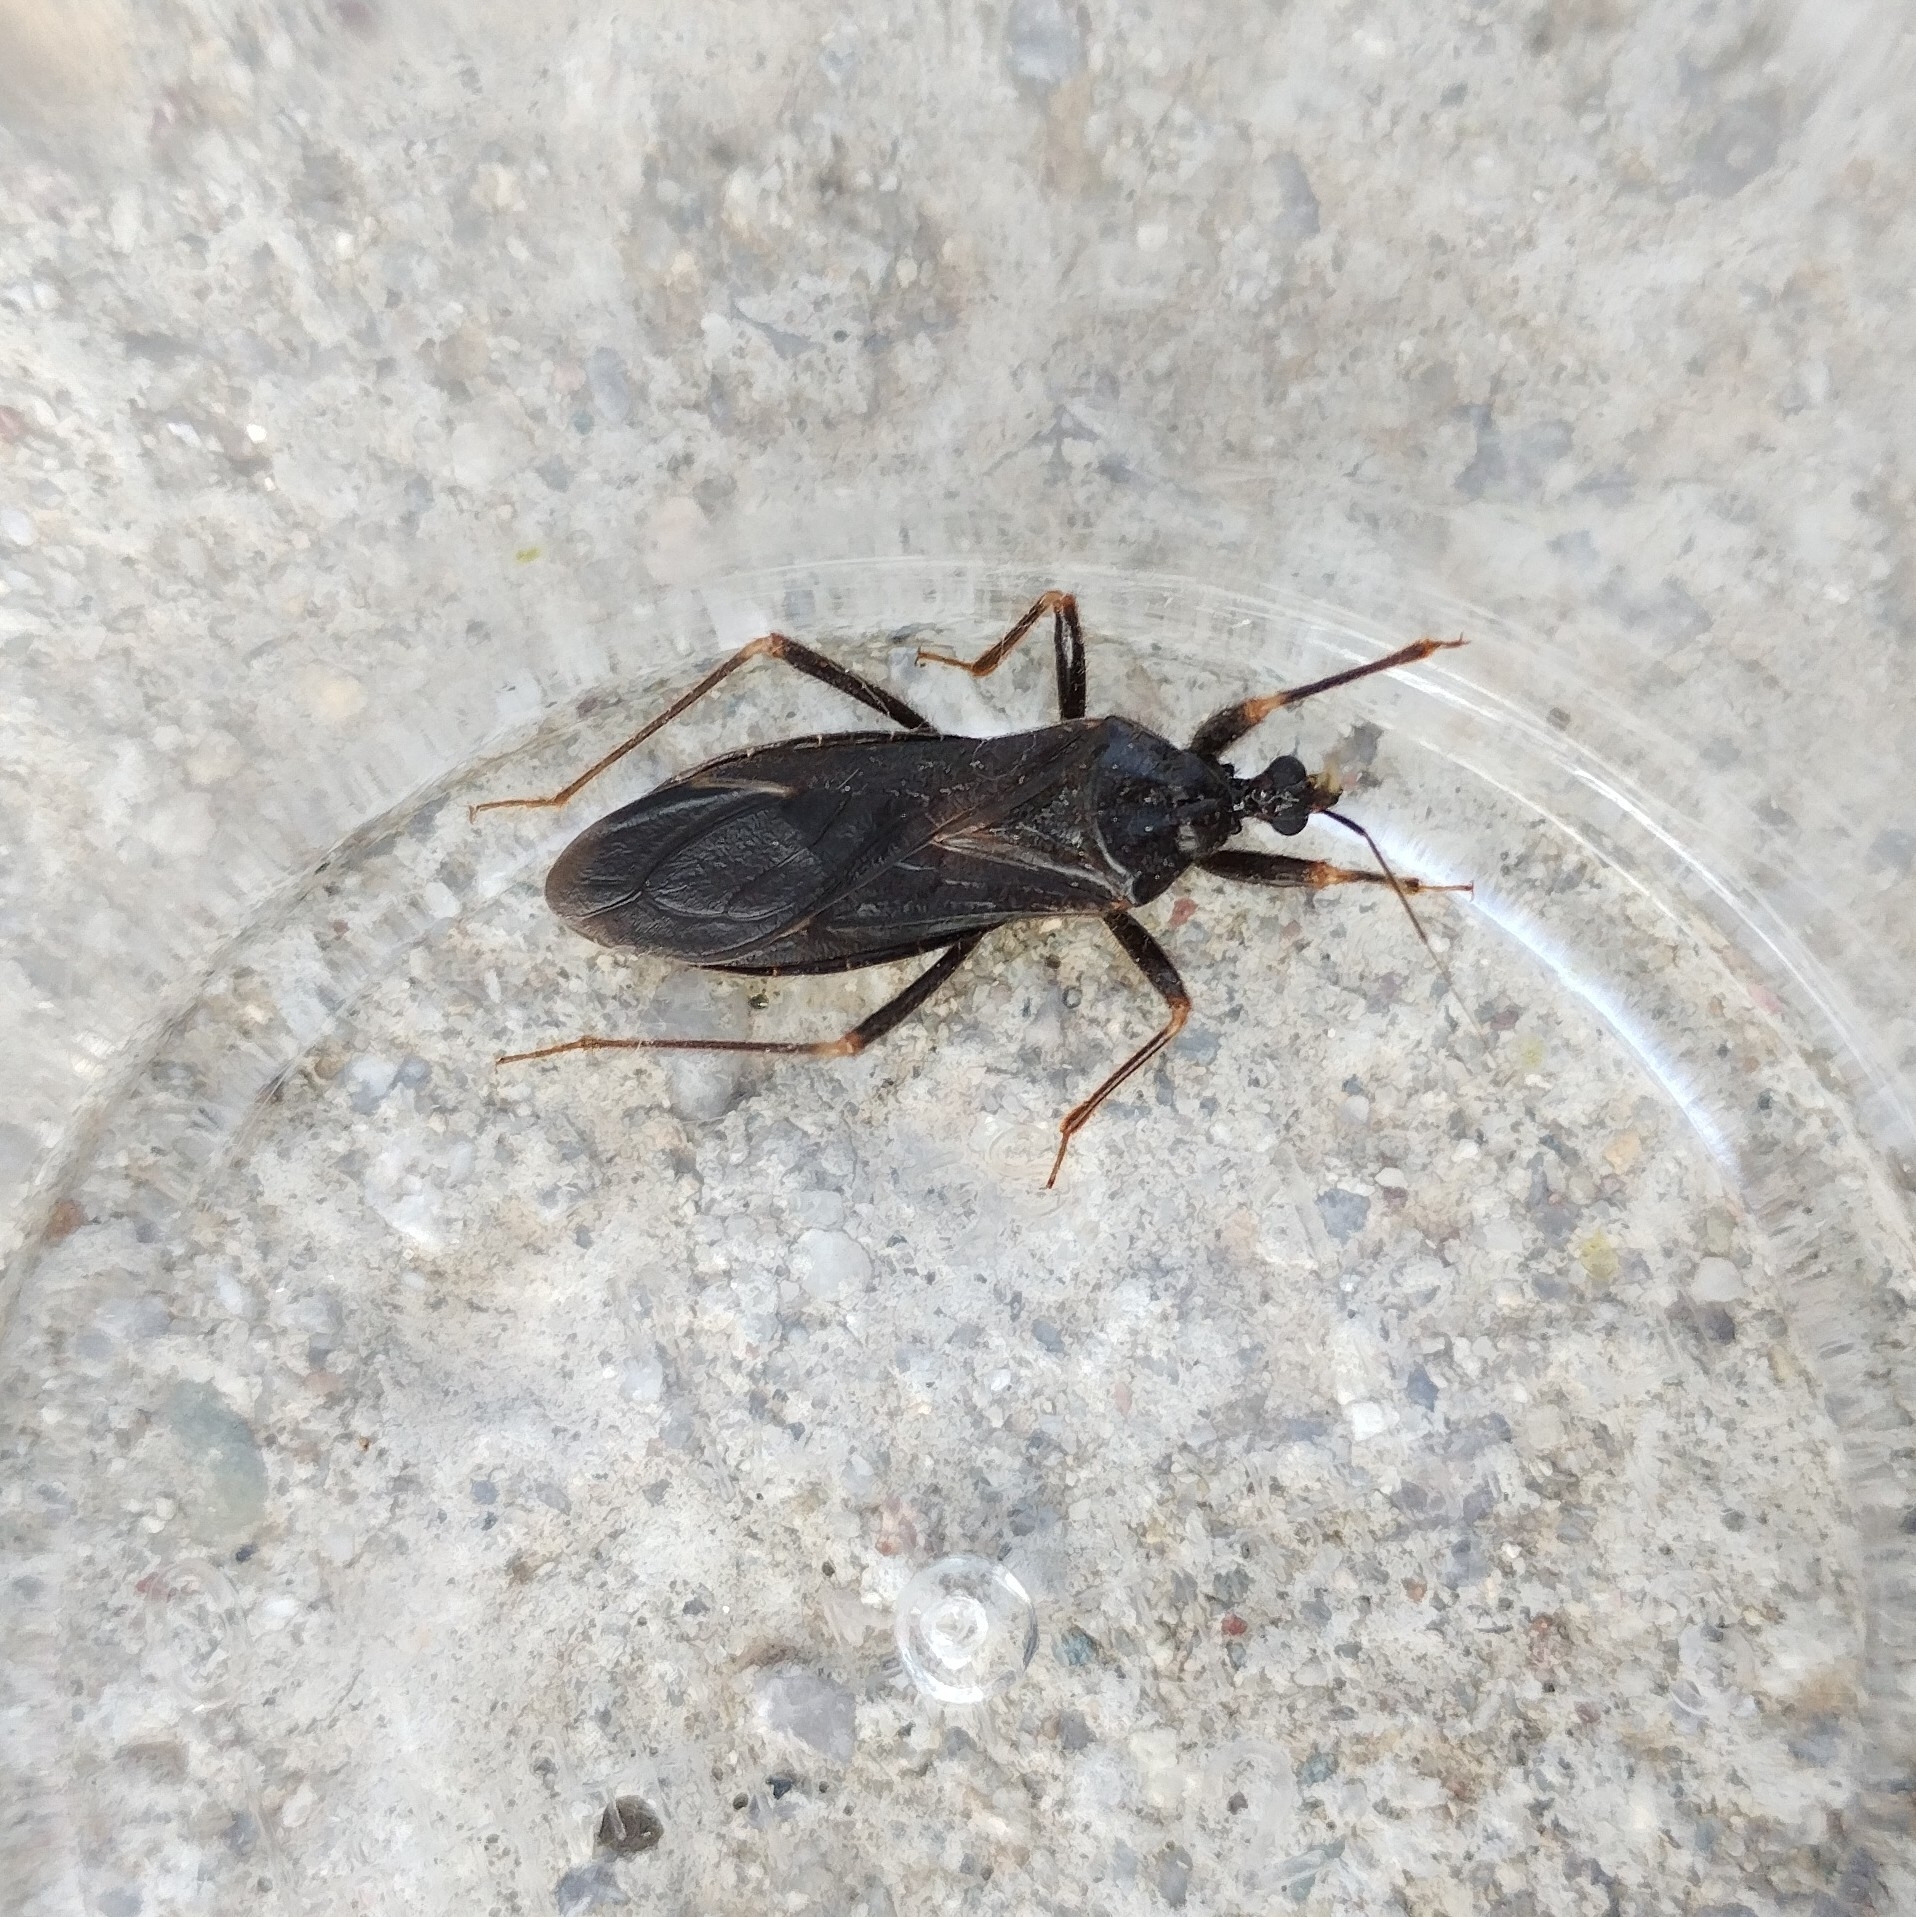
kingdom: Animalia
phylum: Arthropoda
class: Insecta
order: Hemiptera
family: Reduviidae
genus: Reduvius
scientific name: Reduvius personatus
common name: Masked hunter
